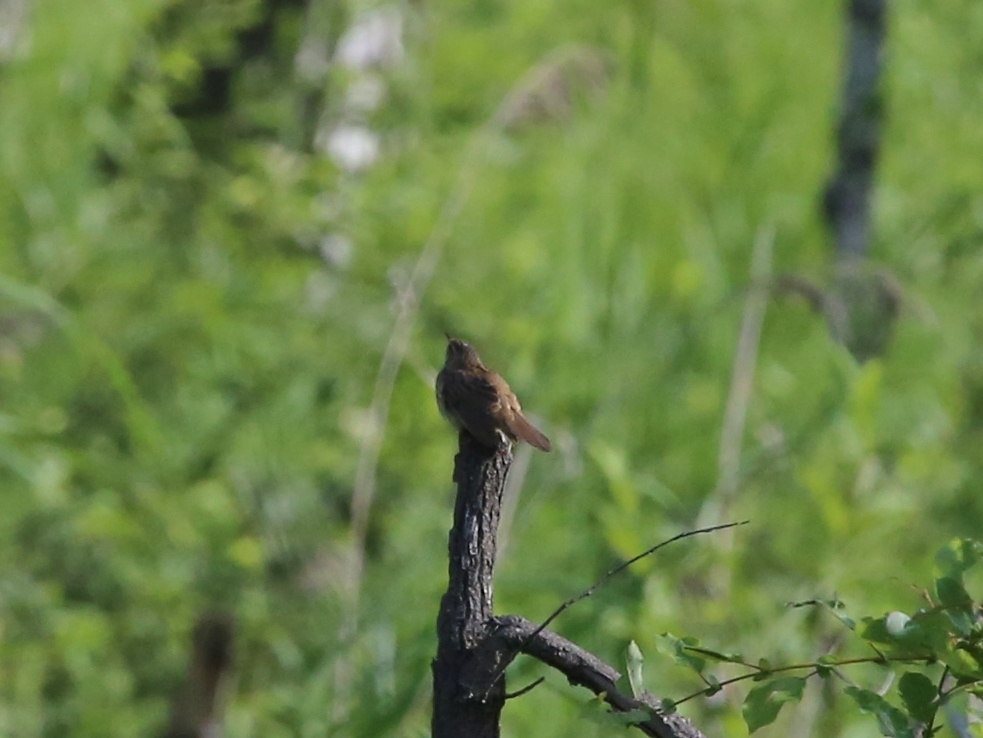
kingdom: Animalia
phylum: Chordata
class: Aves
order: Passeriformes
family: Locustellidae
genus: Locustella
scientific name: Locustella certhiola
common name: Pallas's grasshopper warbler
